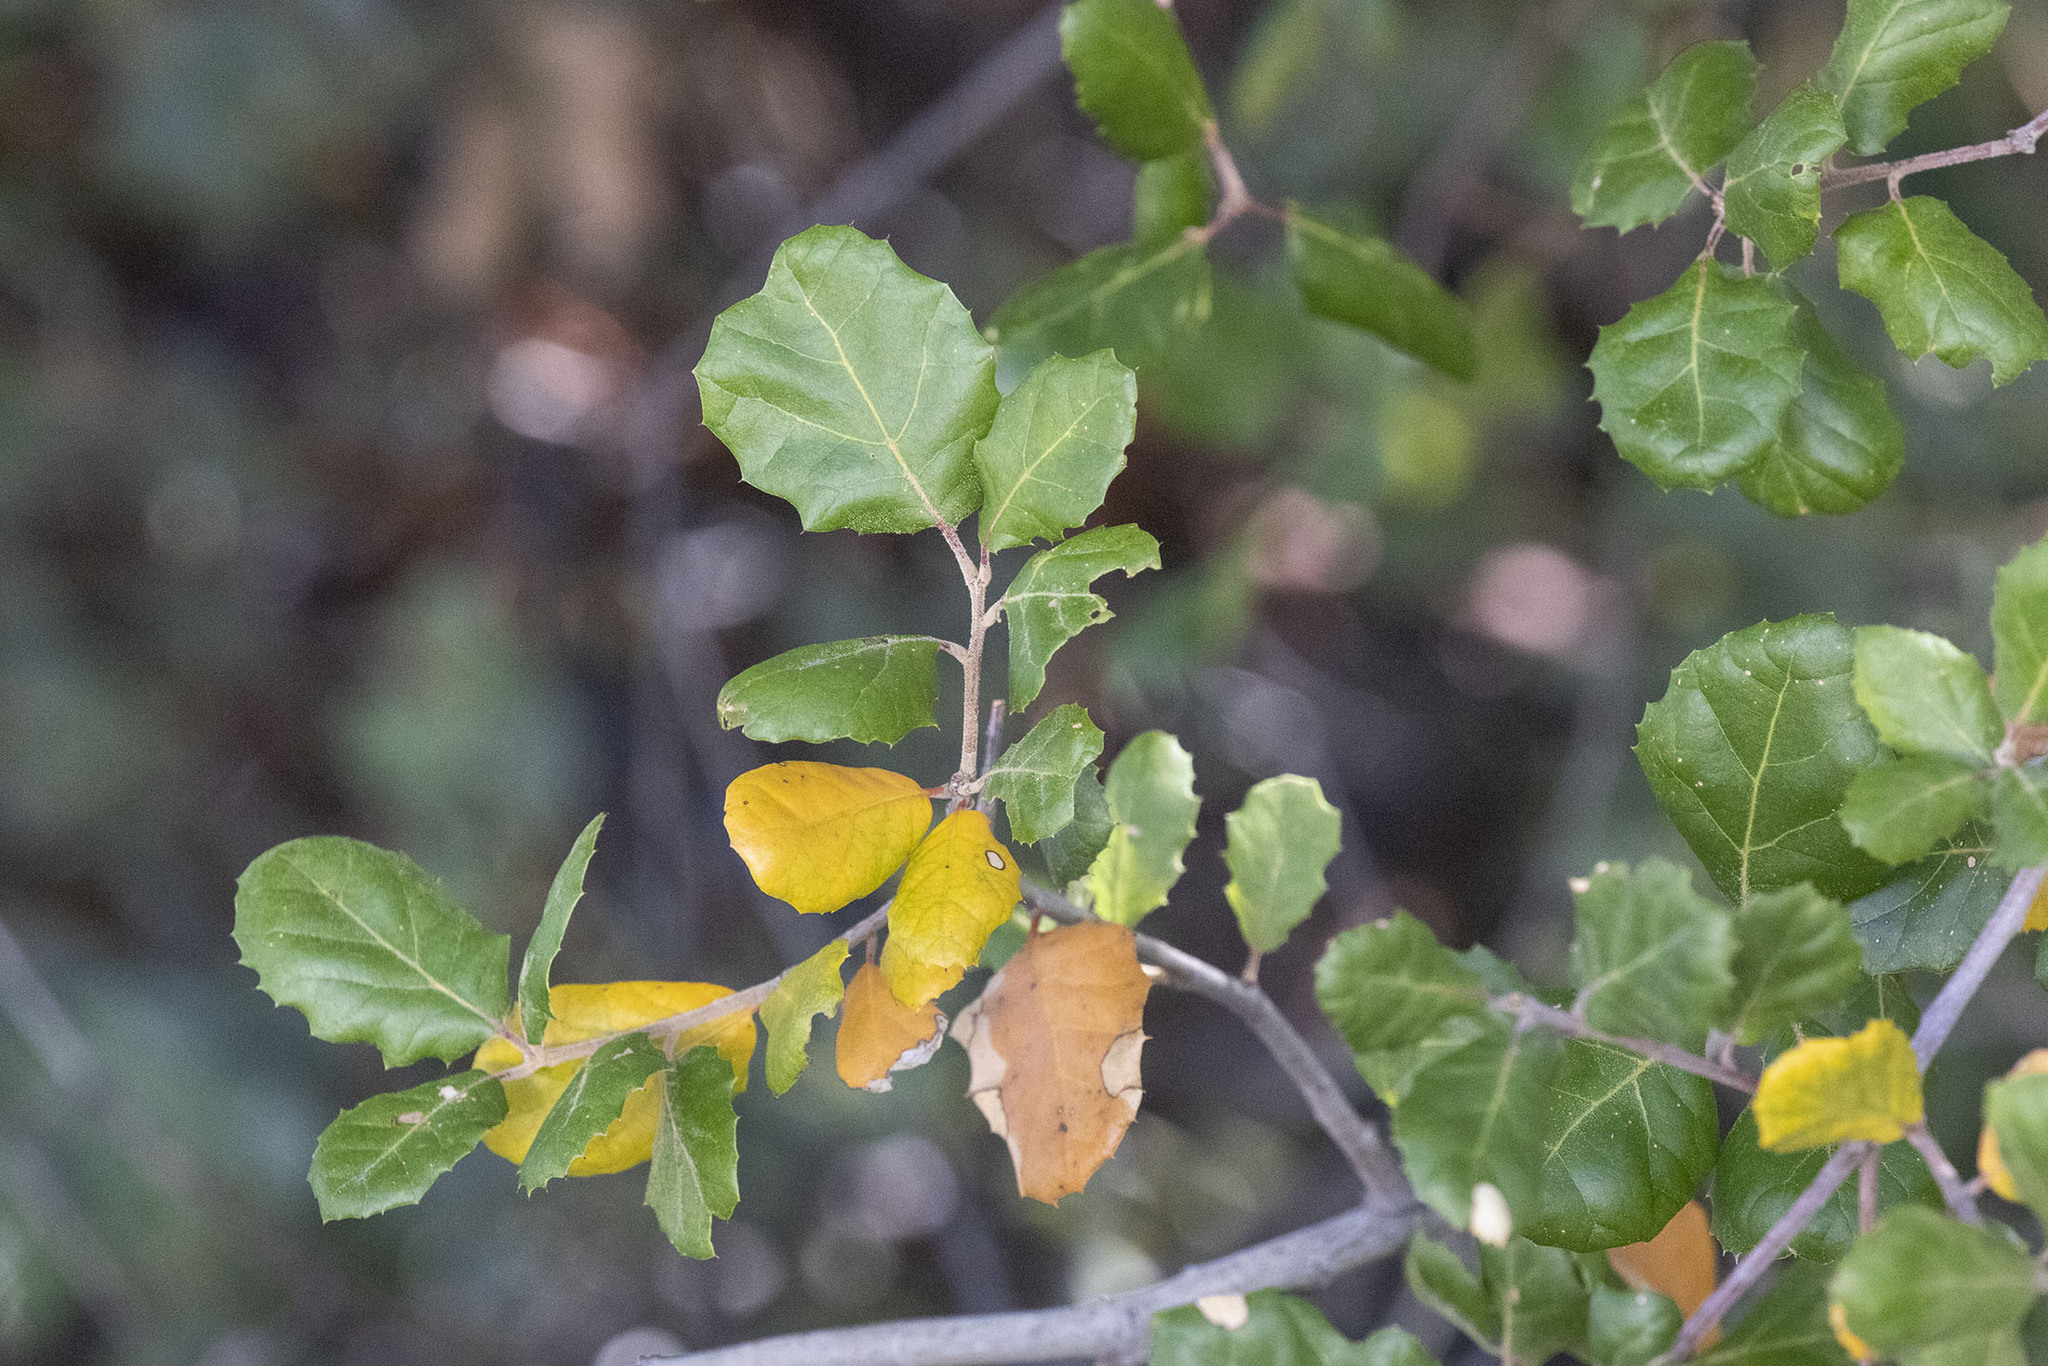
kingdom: Plantae
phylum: Tracheophyta
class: Magnoliopsida
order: Fagales
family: Fagaceae
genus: Quercus
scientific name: Quercus agrifolia
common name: California live oak
